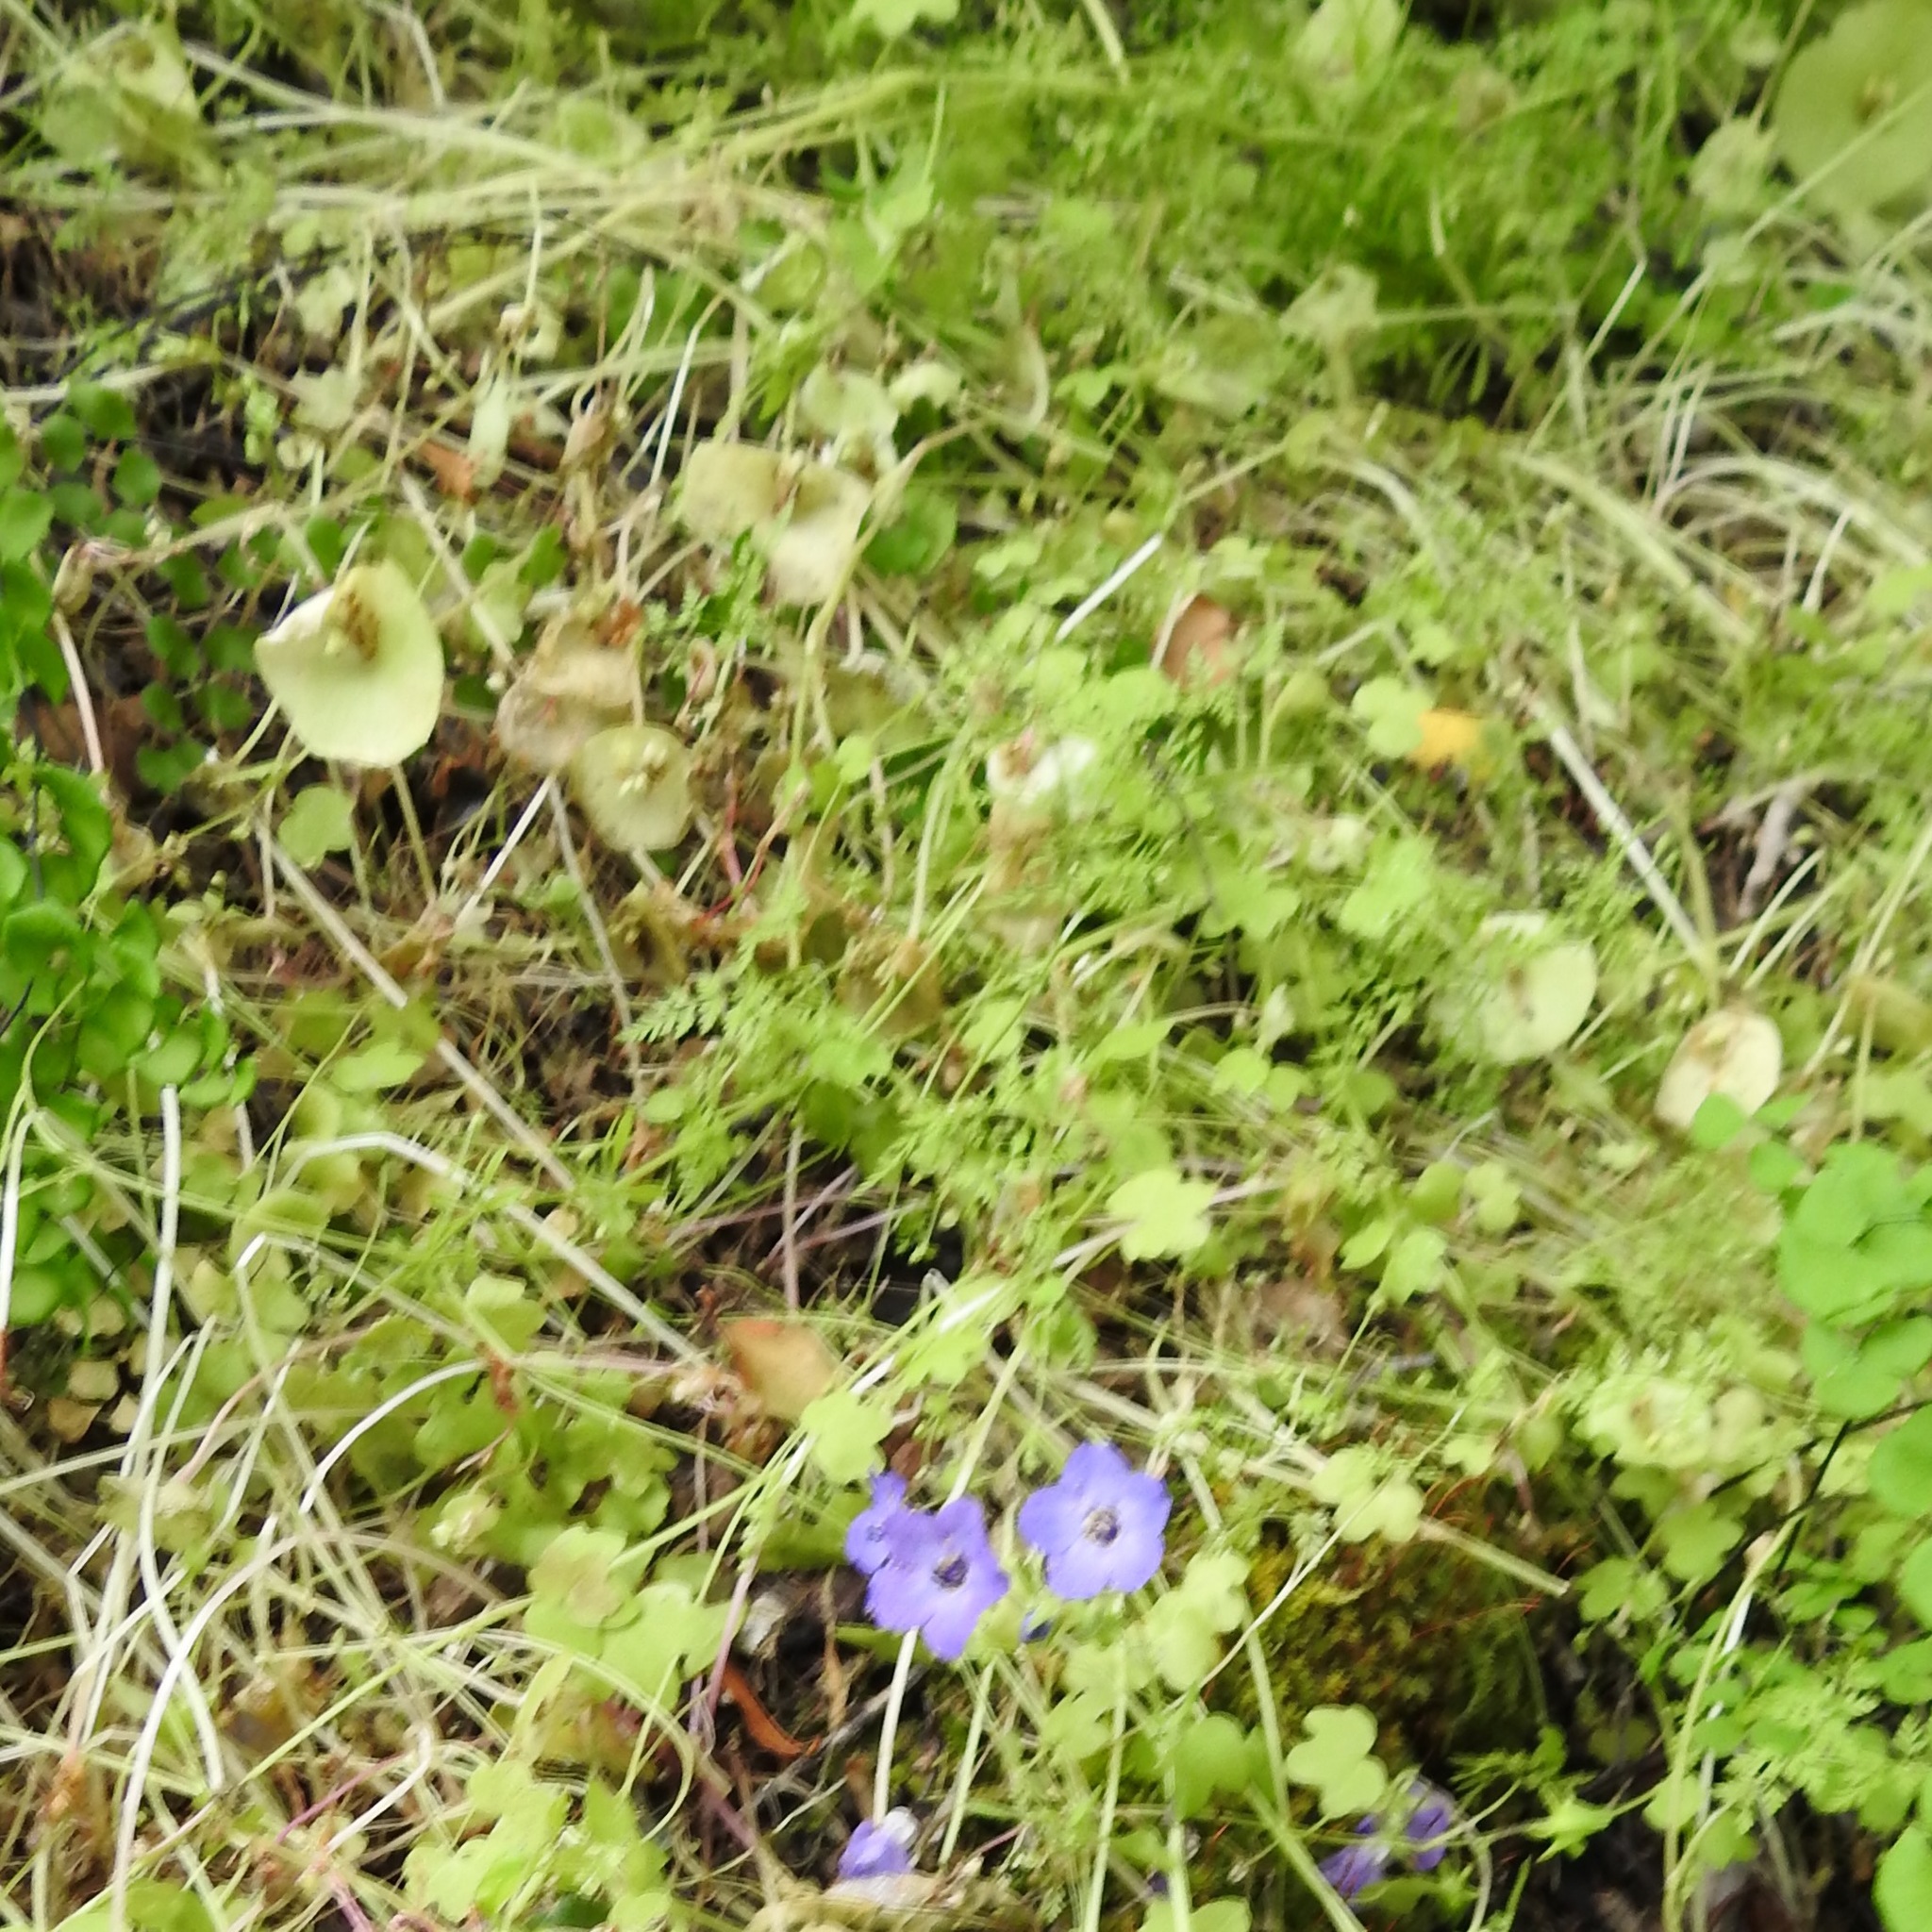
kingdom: Plantae
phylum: Tracheophyta
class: Magnoliopsida
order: Boraginales
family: Hydrophyllaceae
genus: Pholistoma
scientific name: Pholistoma auritum
